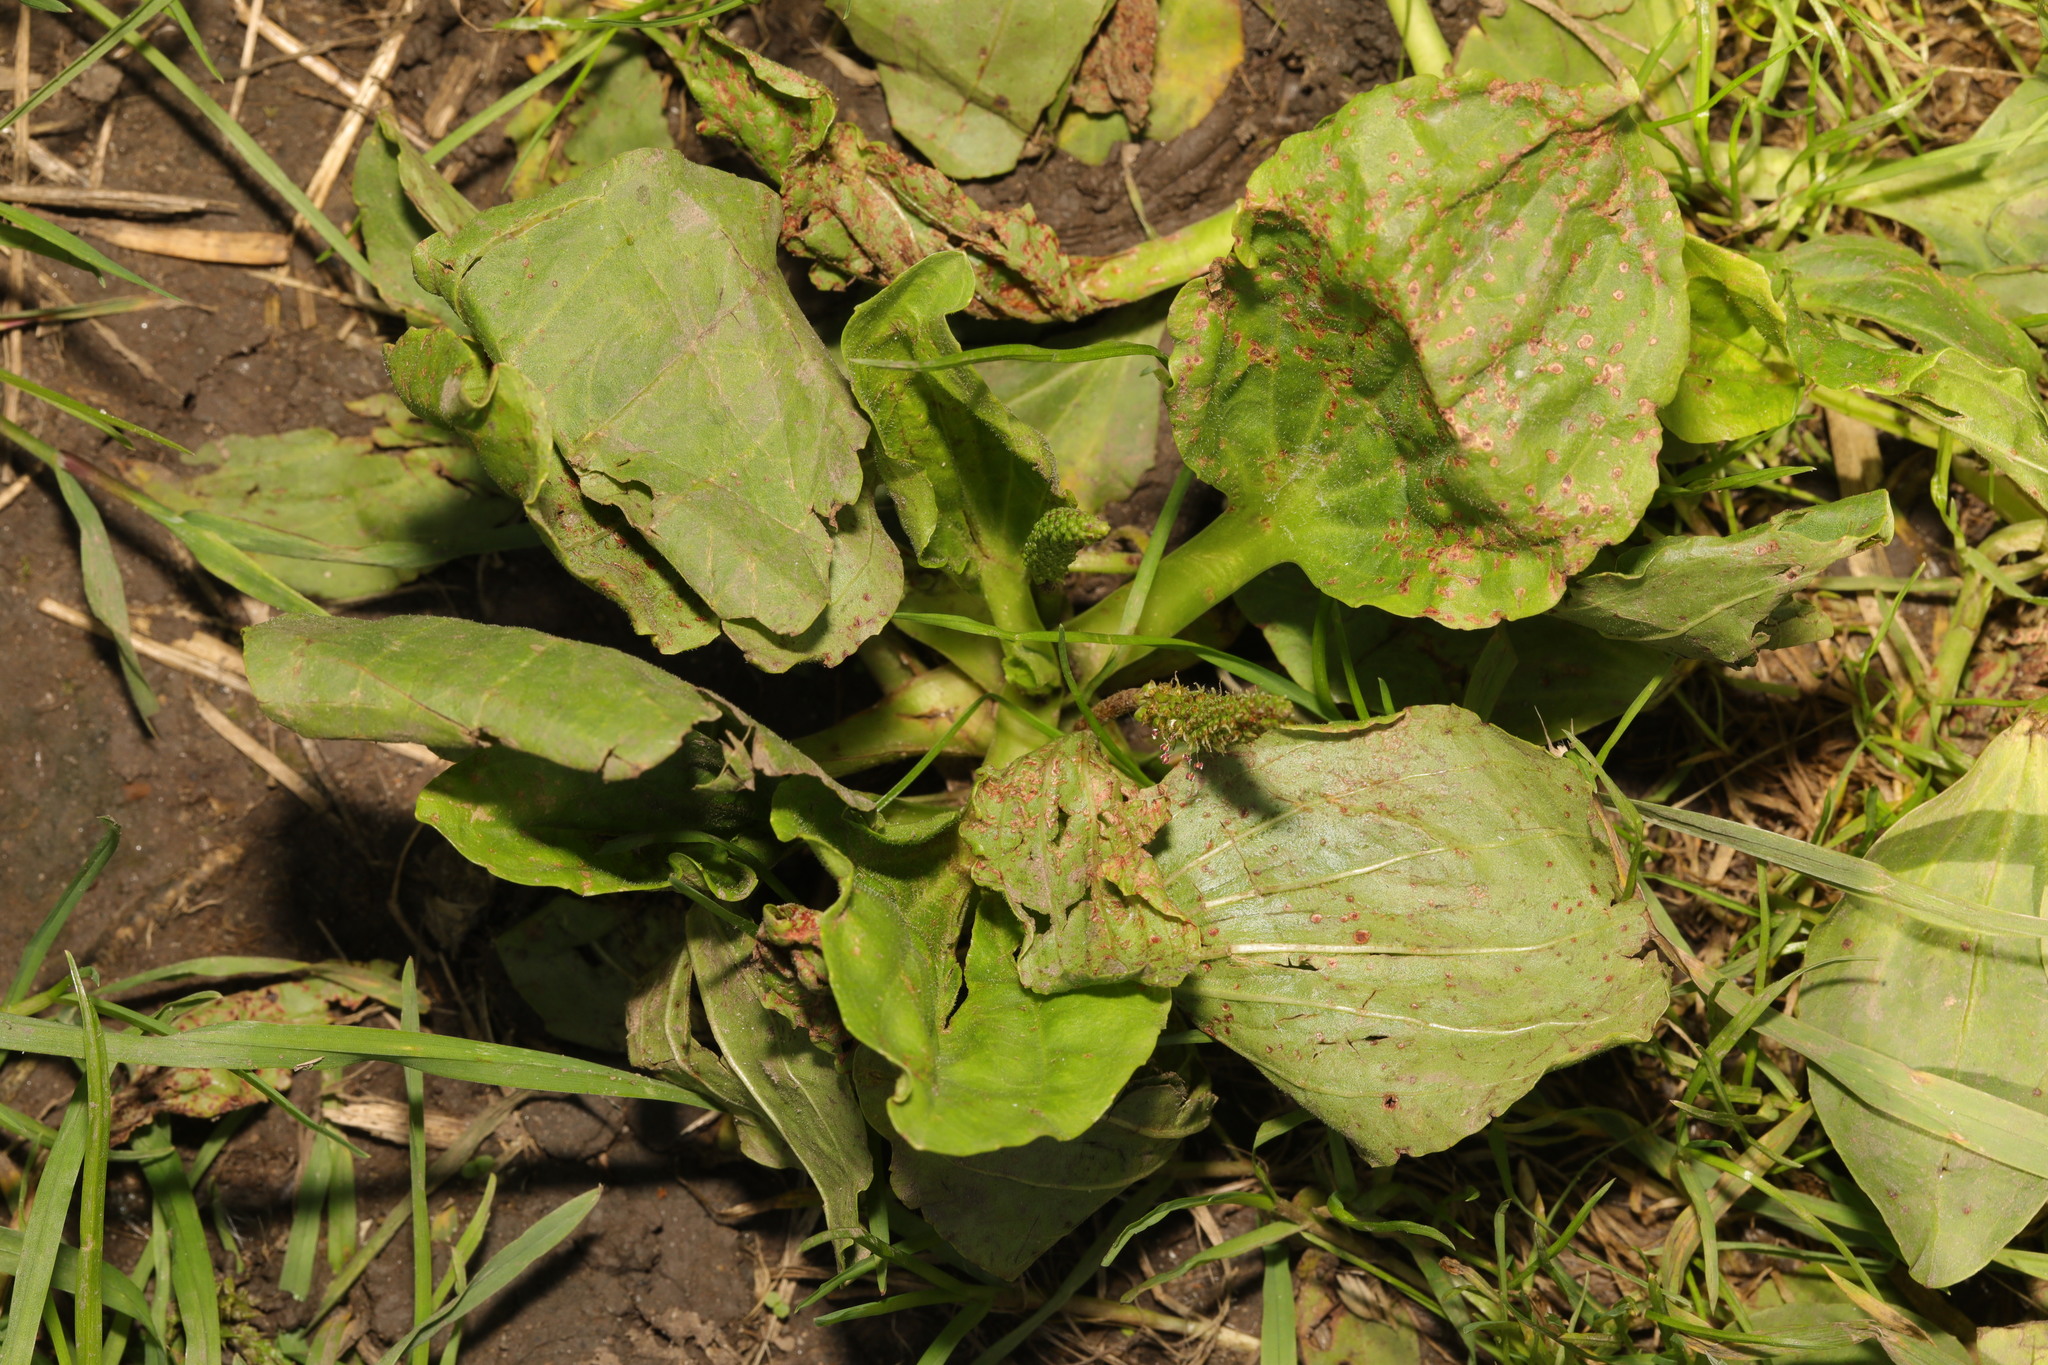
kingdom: Plantae
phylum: Tracheophyta
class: Magnoliopsida
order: Lamiales
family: Plantaginaceae
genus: Plantago
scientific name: Plantago major
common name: Common plantain
